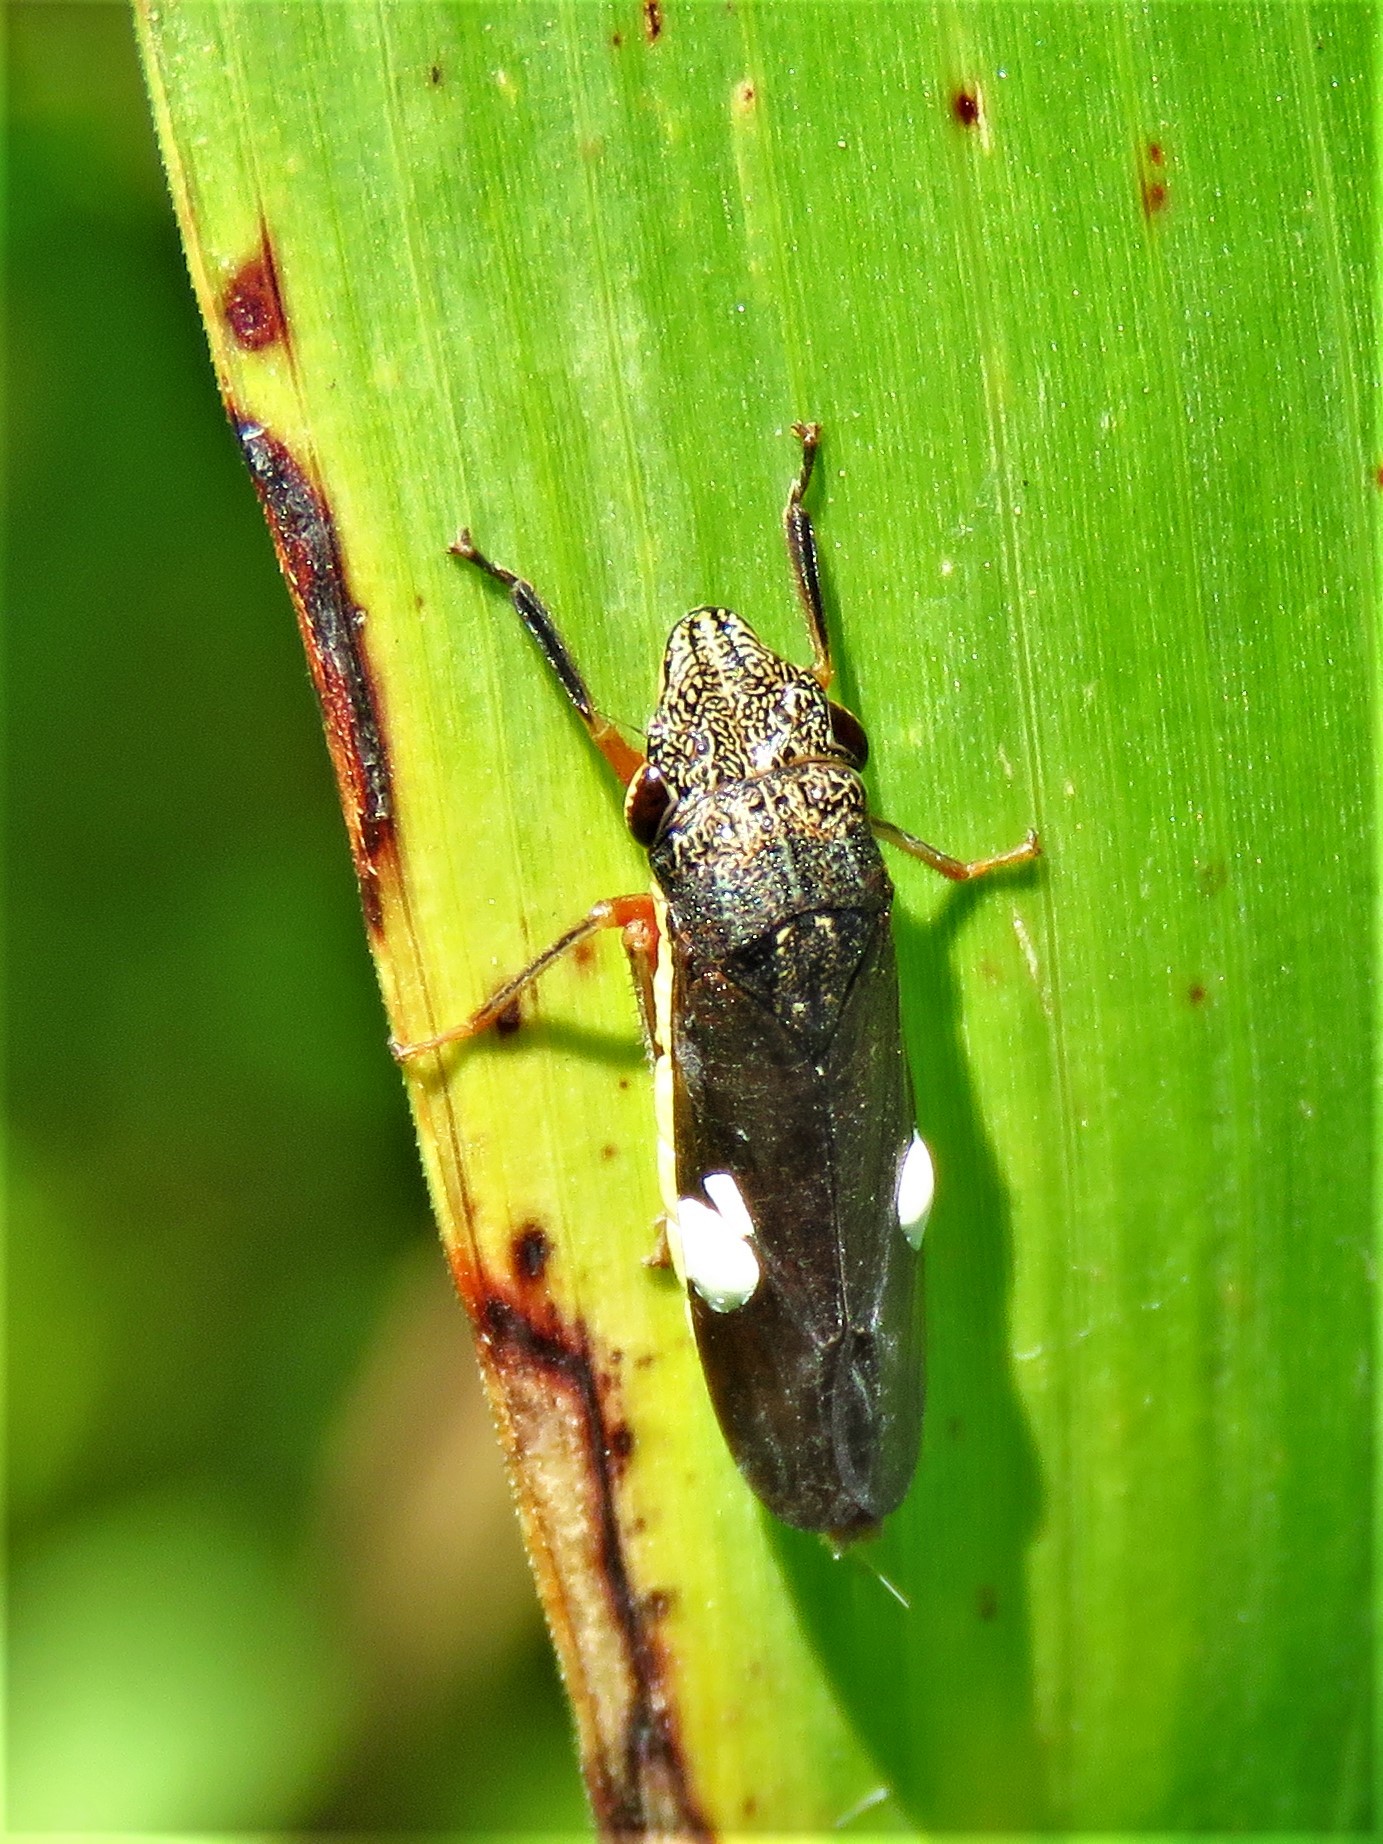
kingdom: Animalia
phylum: Arthropoda
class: Insecta
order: Hemiptera
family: Cicadellidae
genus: Homalodisca
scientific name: Homalodisca insolita
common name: Johnson grass sharpshooter
